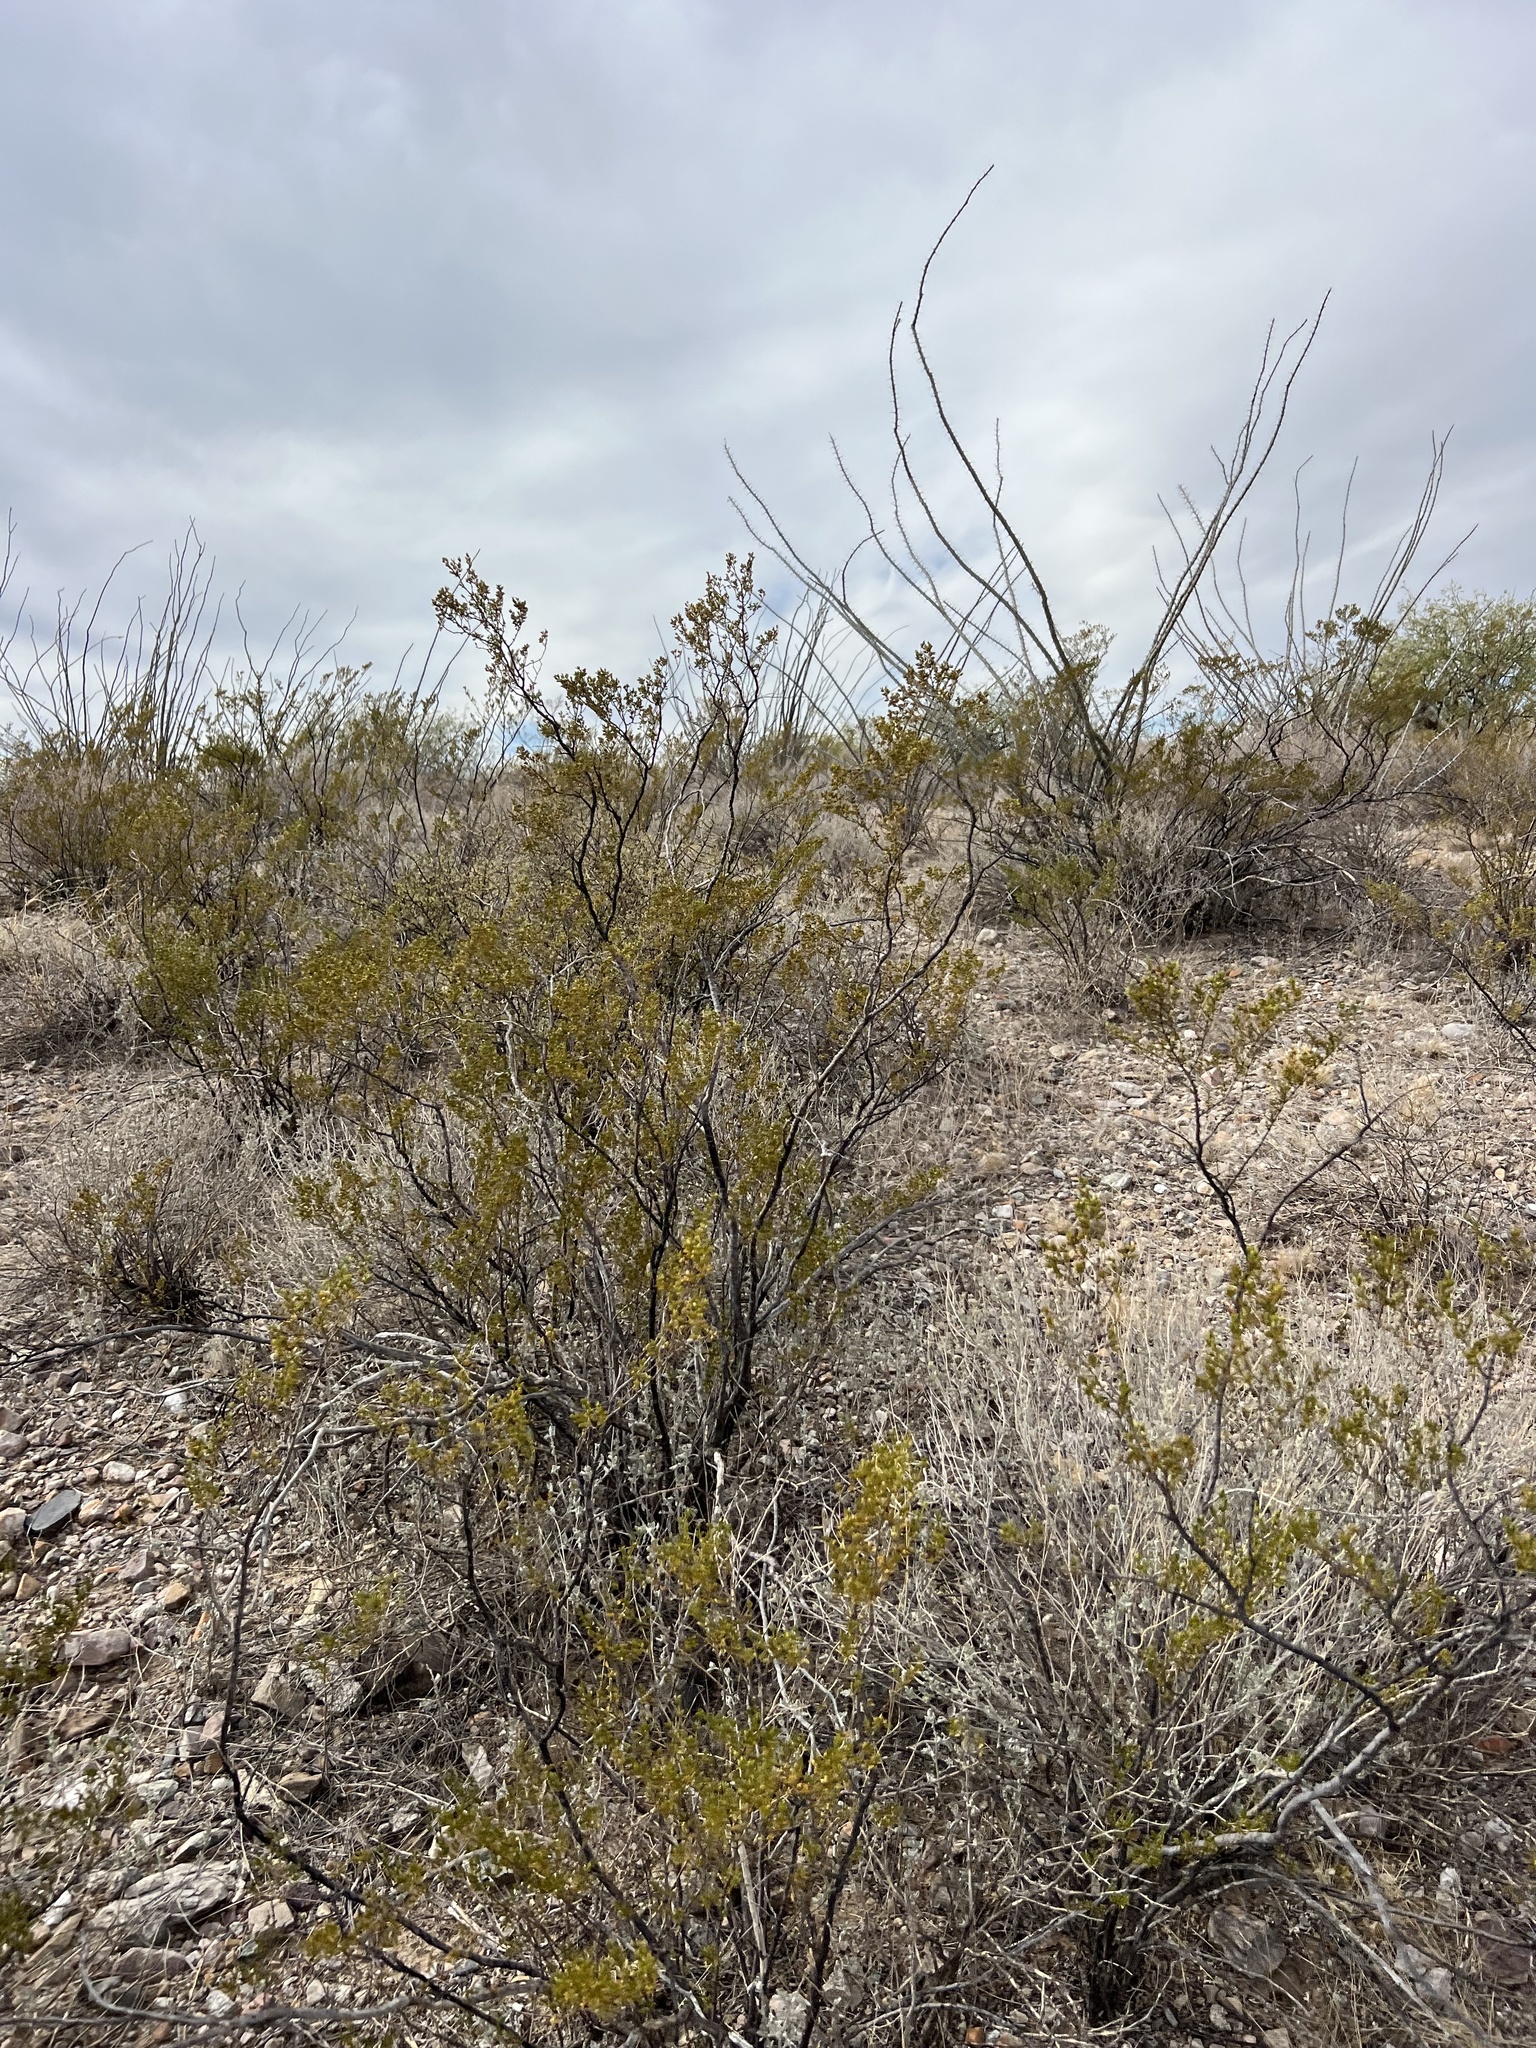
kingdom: Plantae
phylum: Tracheophyta
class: Magnoliopsida
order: Zygophyllales
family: Zygophyllaceae
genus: Larrea
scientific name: Larrea tridentata
